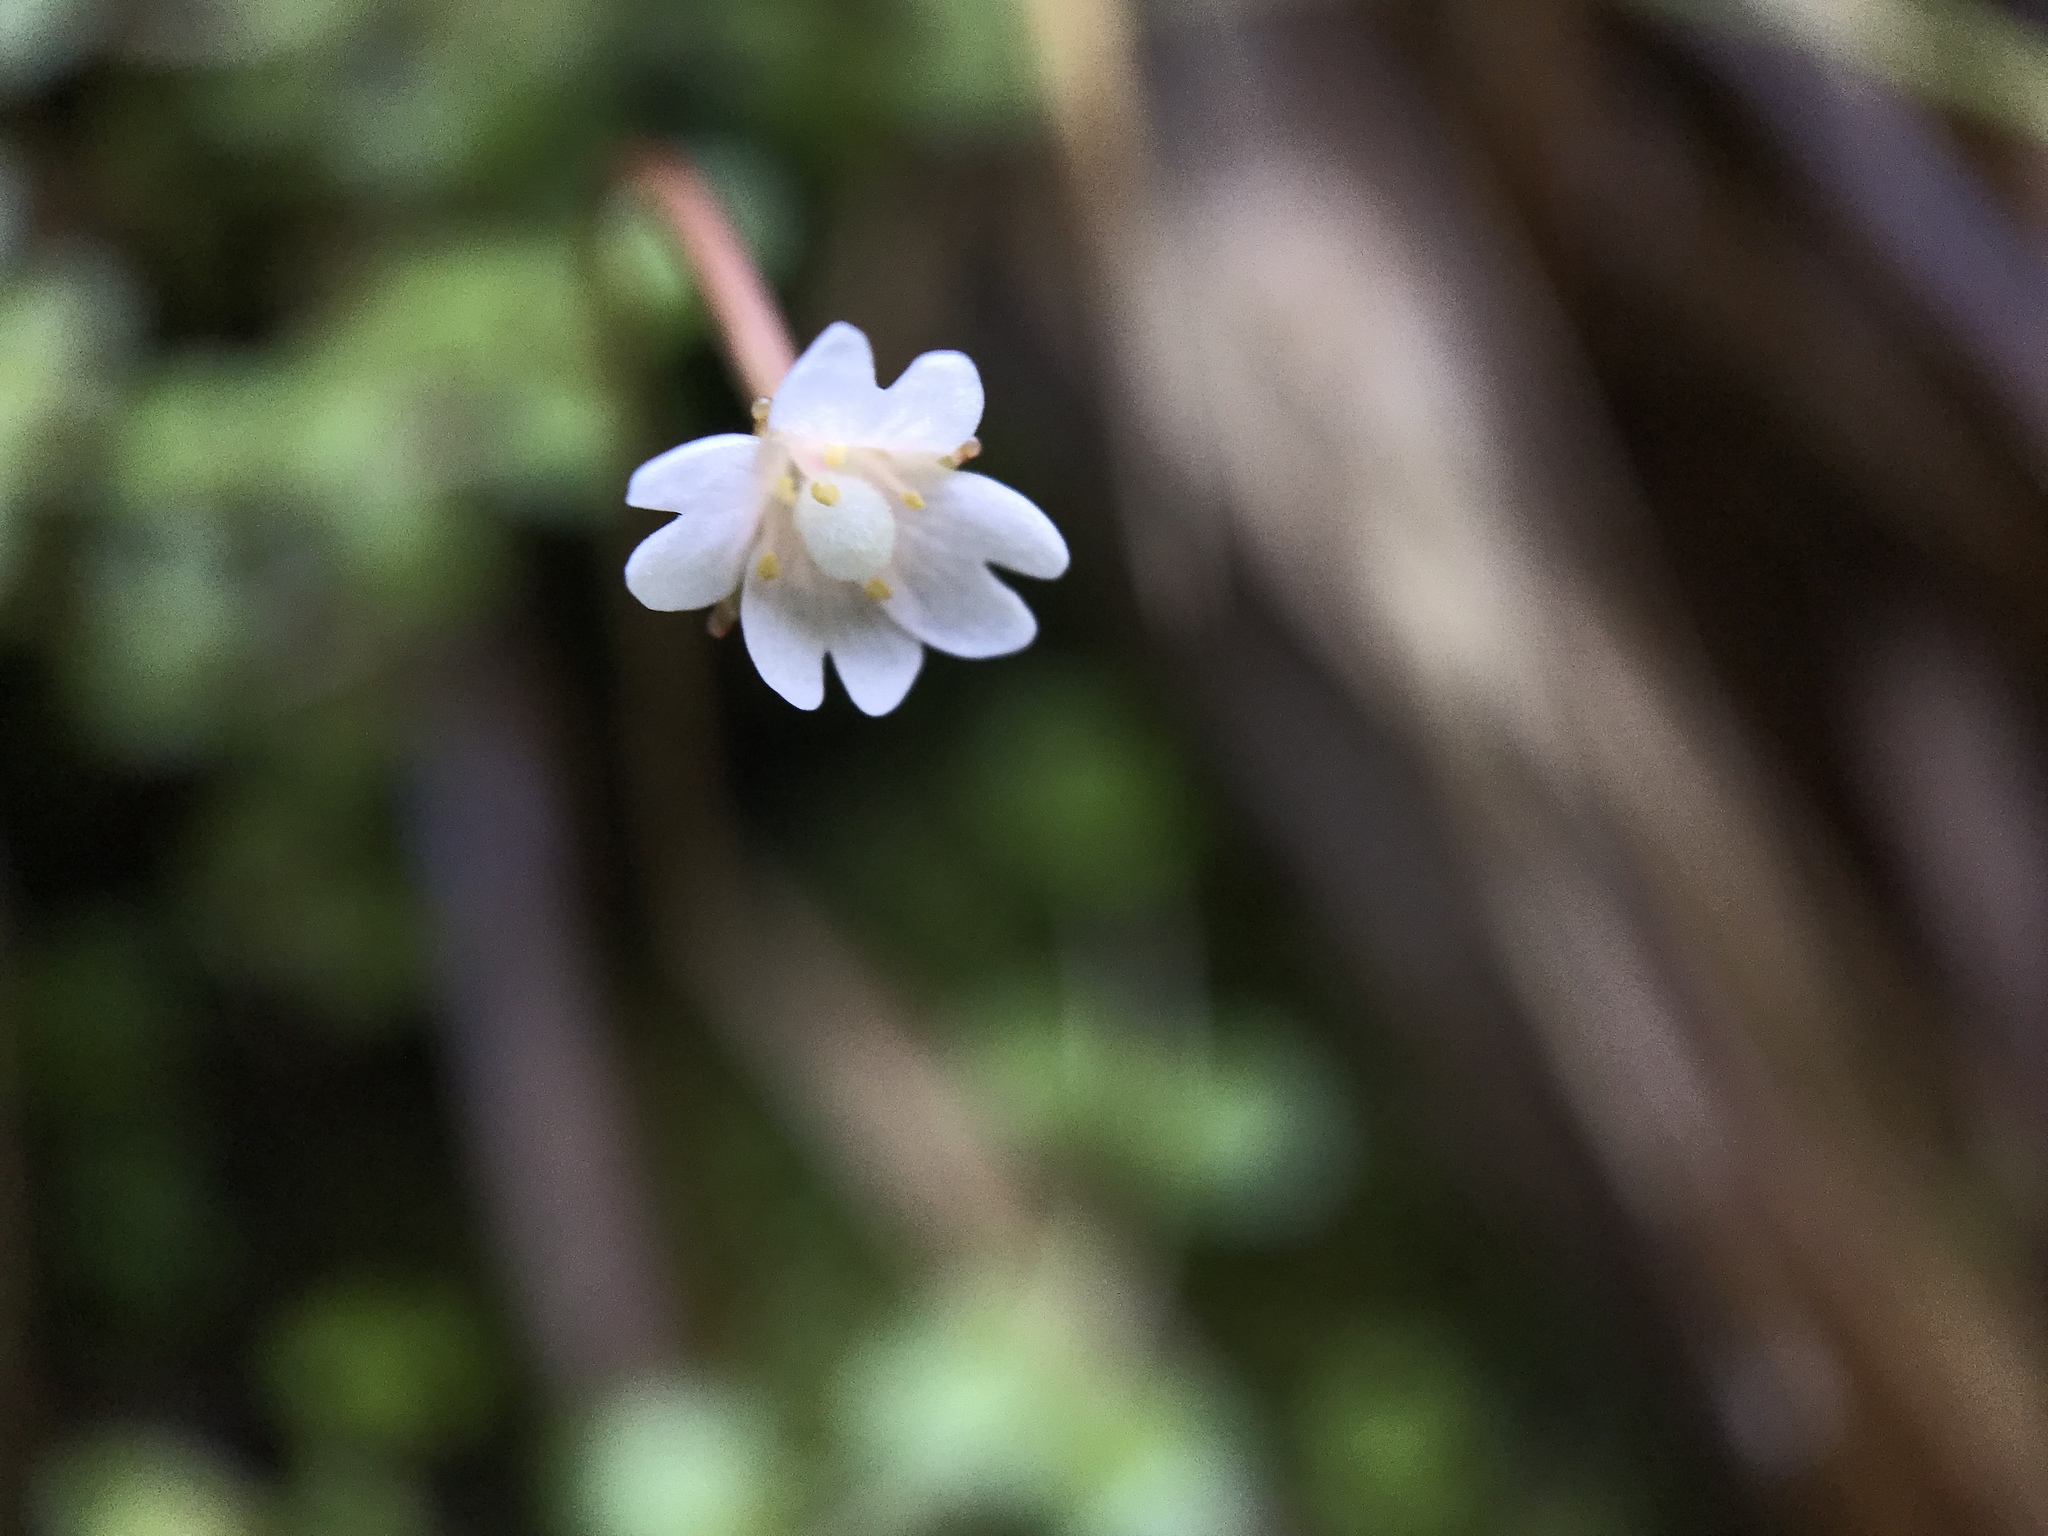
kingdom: Plantae
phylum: Tracheophyta
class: Magnoliopsida
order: Myrtales
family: Onagraceae
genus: Epilobium
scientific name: Epilobium brunnescens
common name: New zealand willowherb
